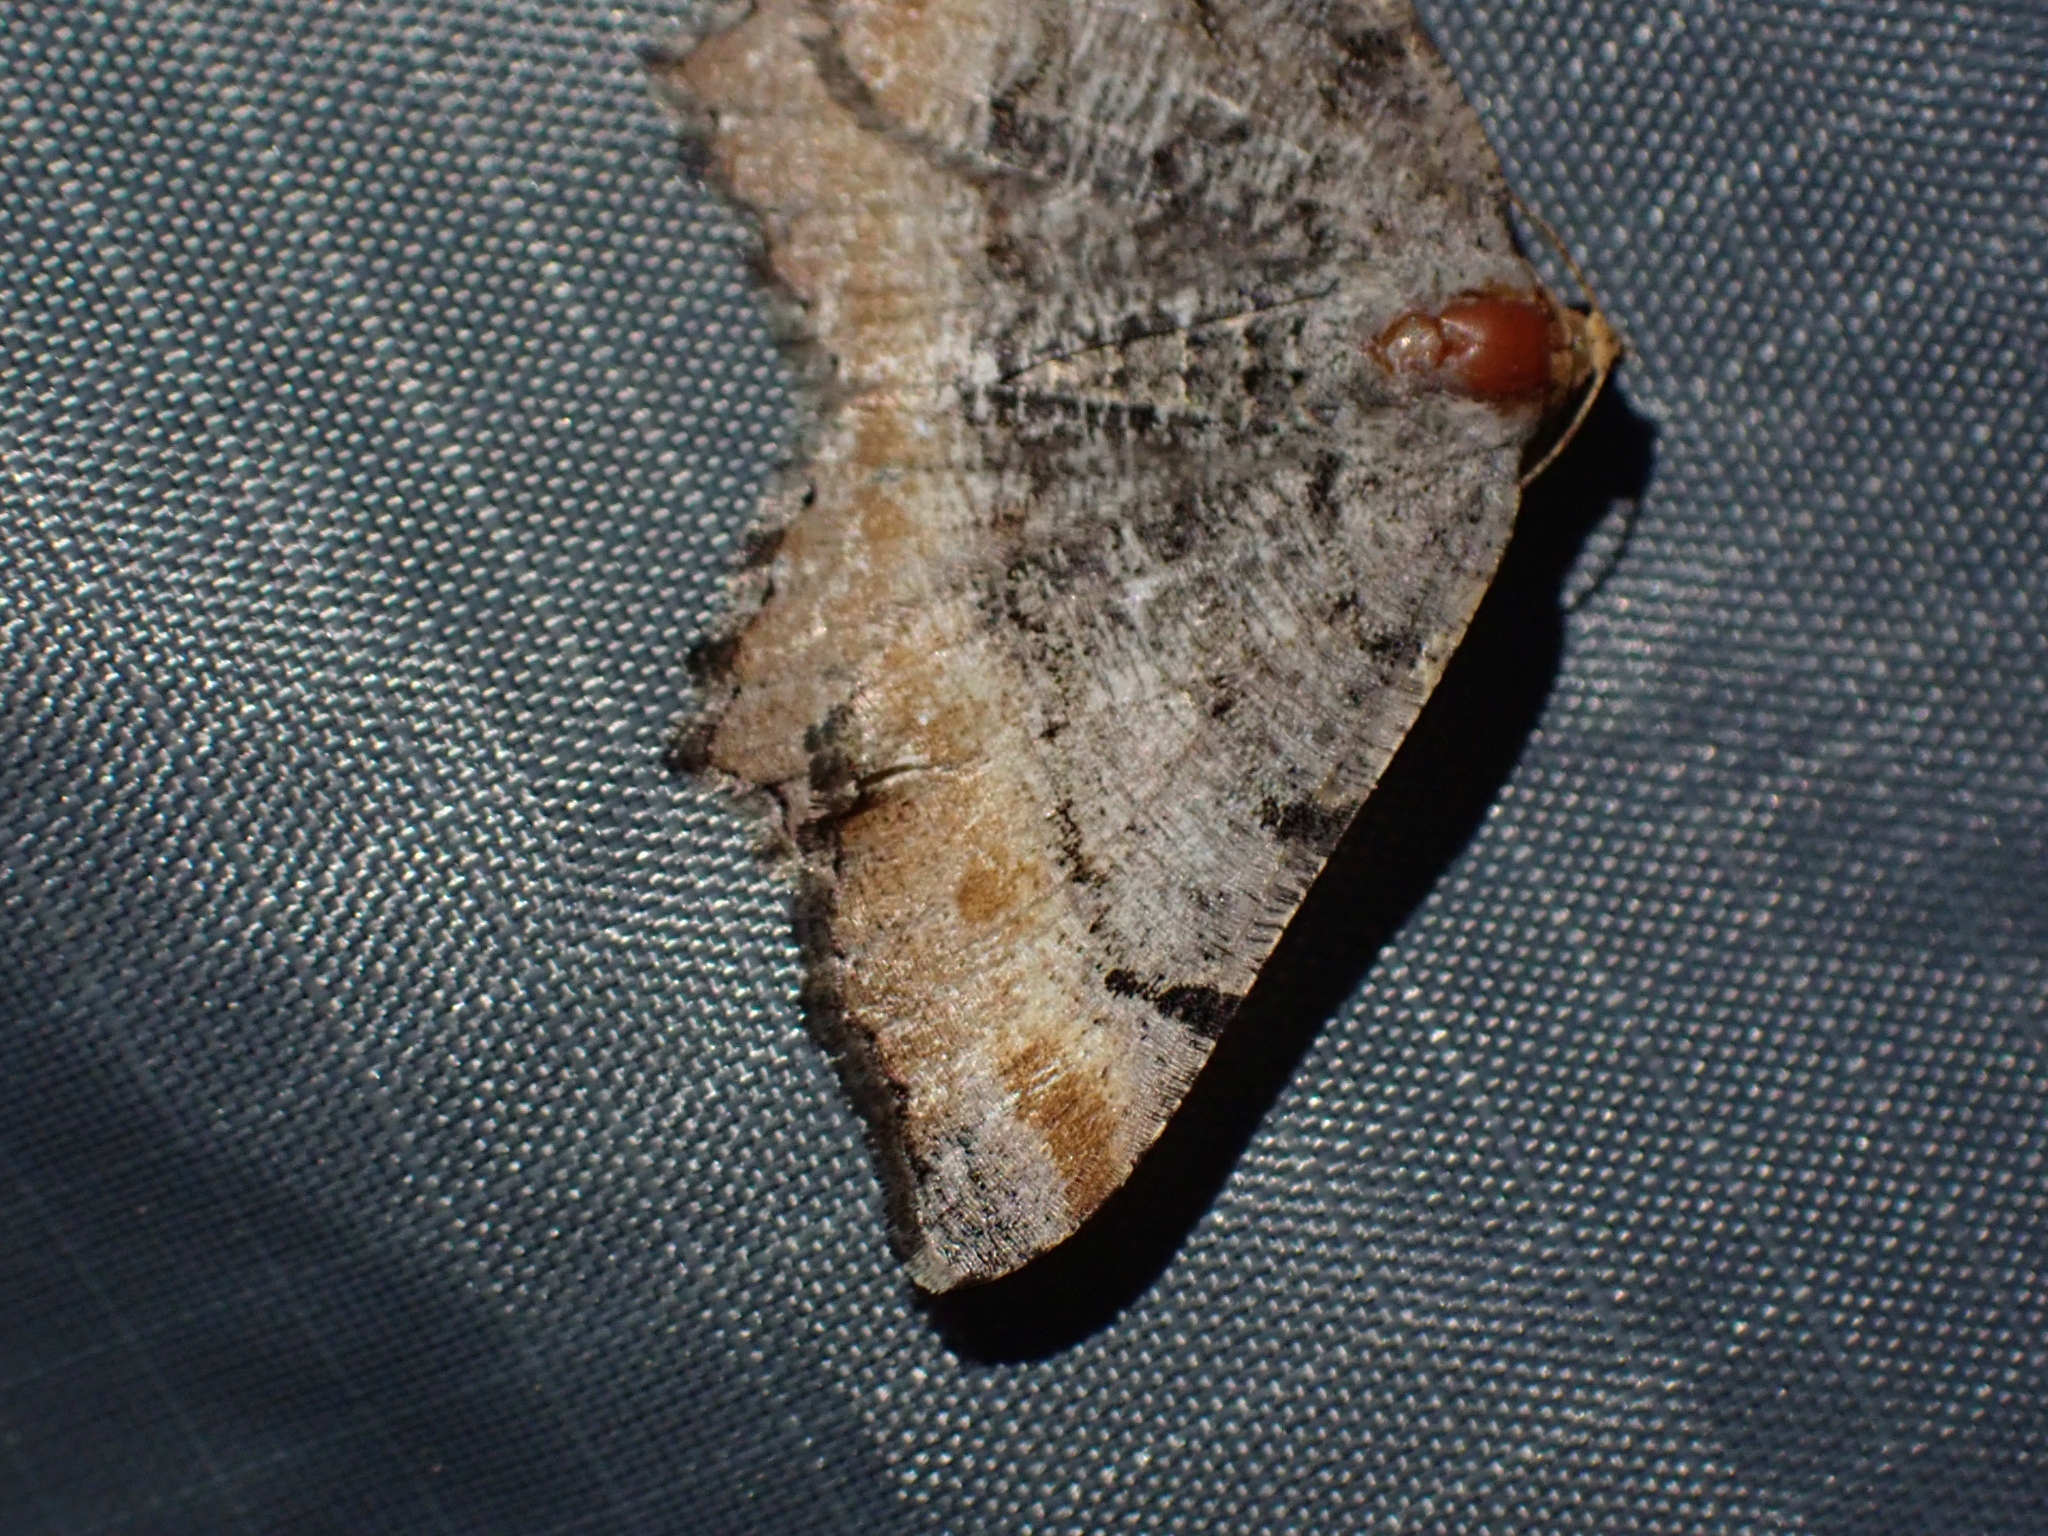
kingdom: Animalia
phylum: Arthropoda
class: Insecta
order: Lepidoptera
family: Geometridae
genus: Macaria
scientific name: Macaria adonis
